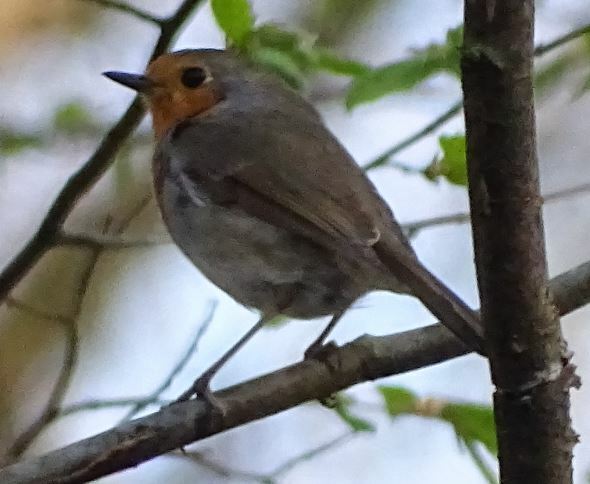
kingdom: Animalia
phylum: Chordata
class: Aves
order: Passeriformes
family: Muscicapidae
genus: Erithacus
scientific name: Erithacus rubecula
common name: European robin
